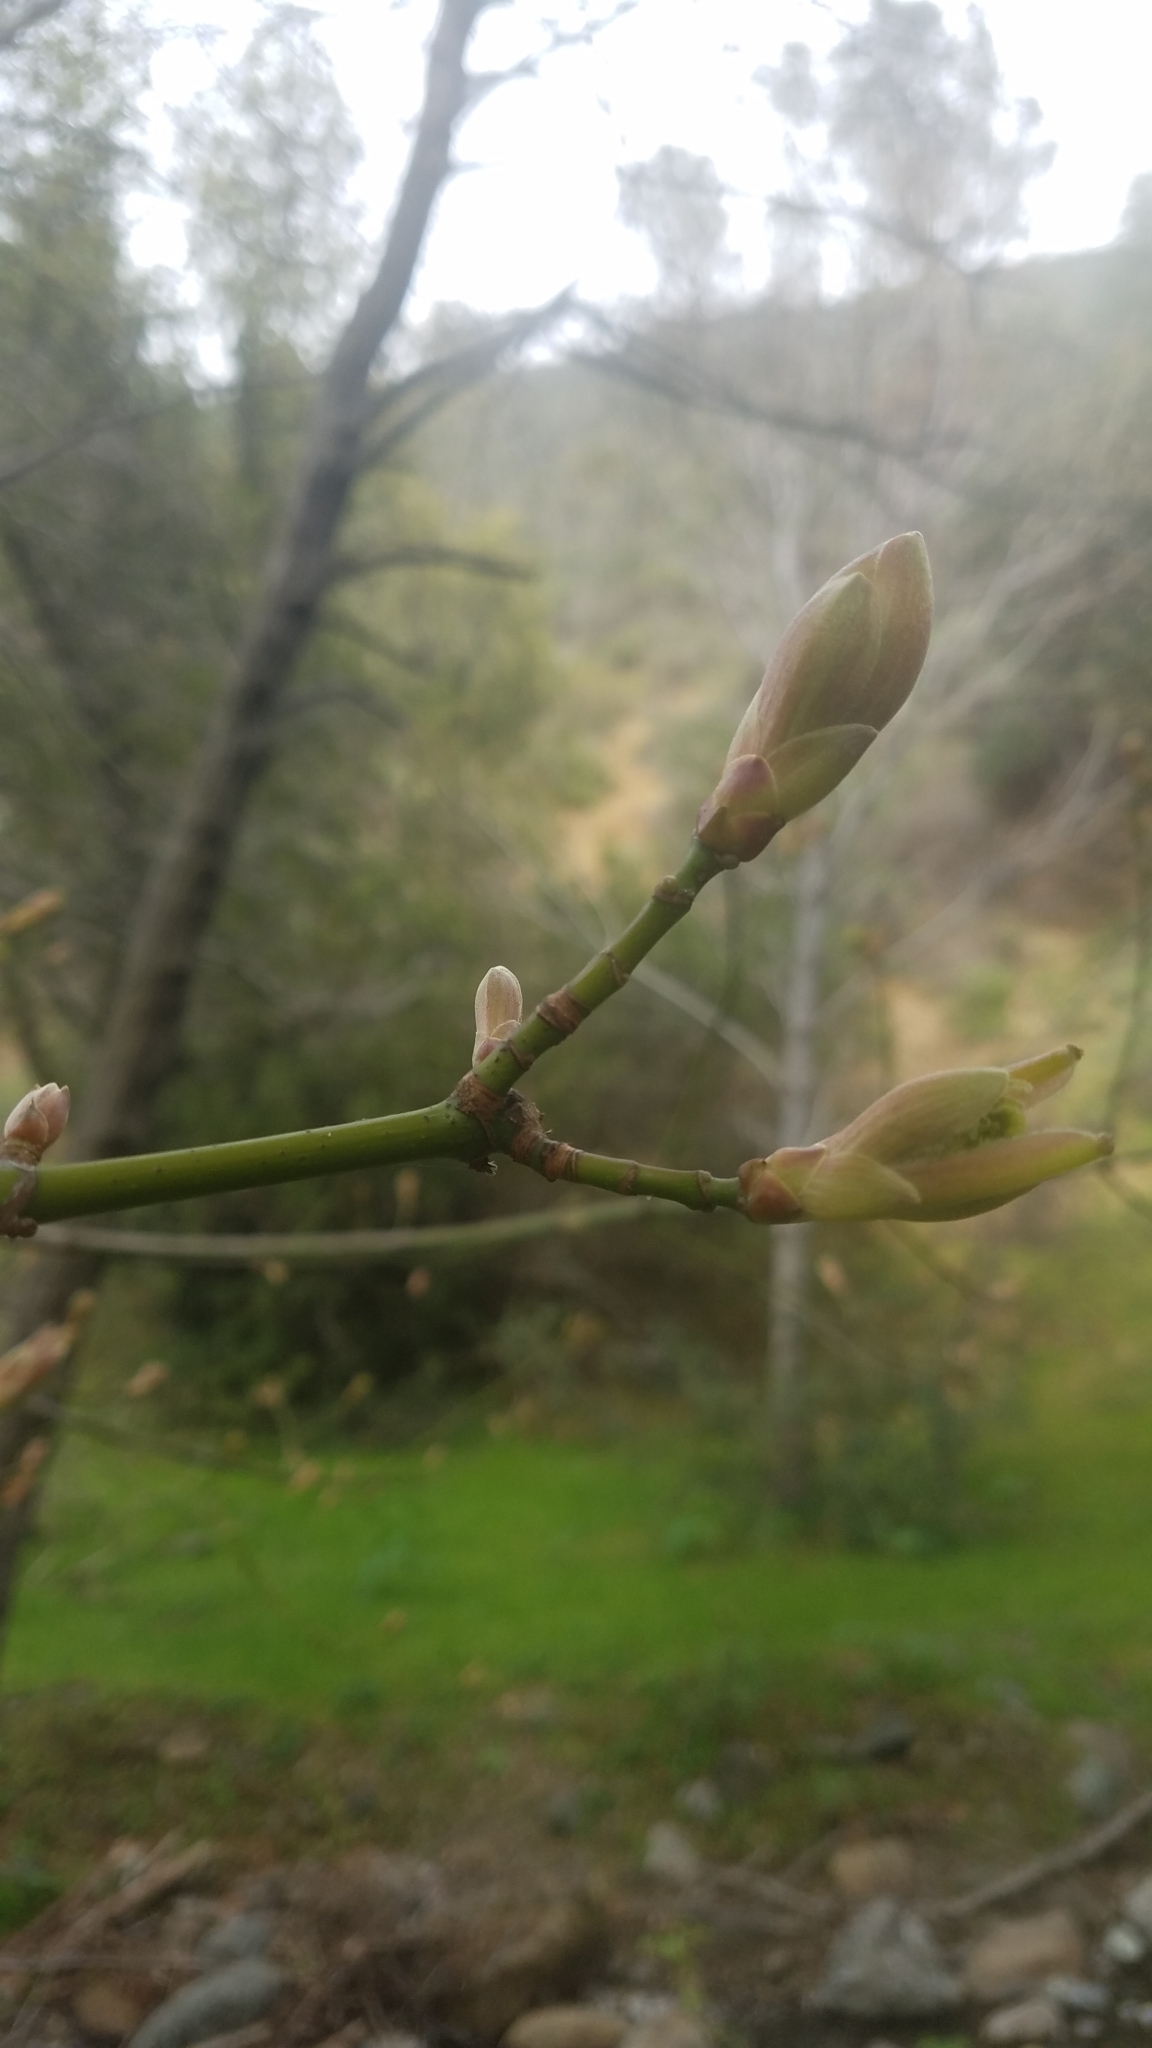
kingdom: Plantae
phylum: Tracheophyta
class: Magnoliopsida
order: Sapindales
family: Sapindaceae
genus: Aesculus
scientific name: Aesculus californica
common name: California buckeye
